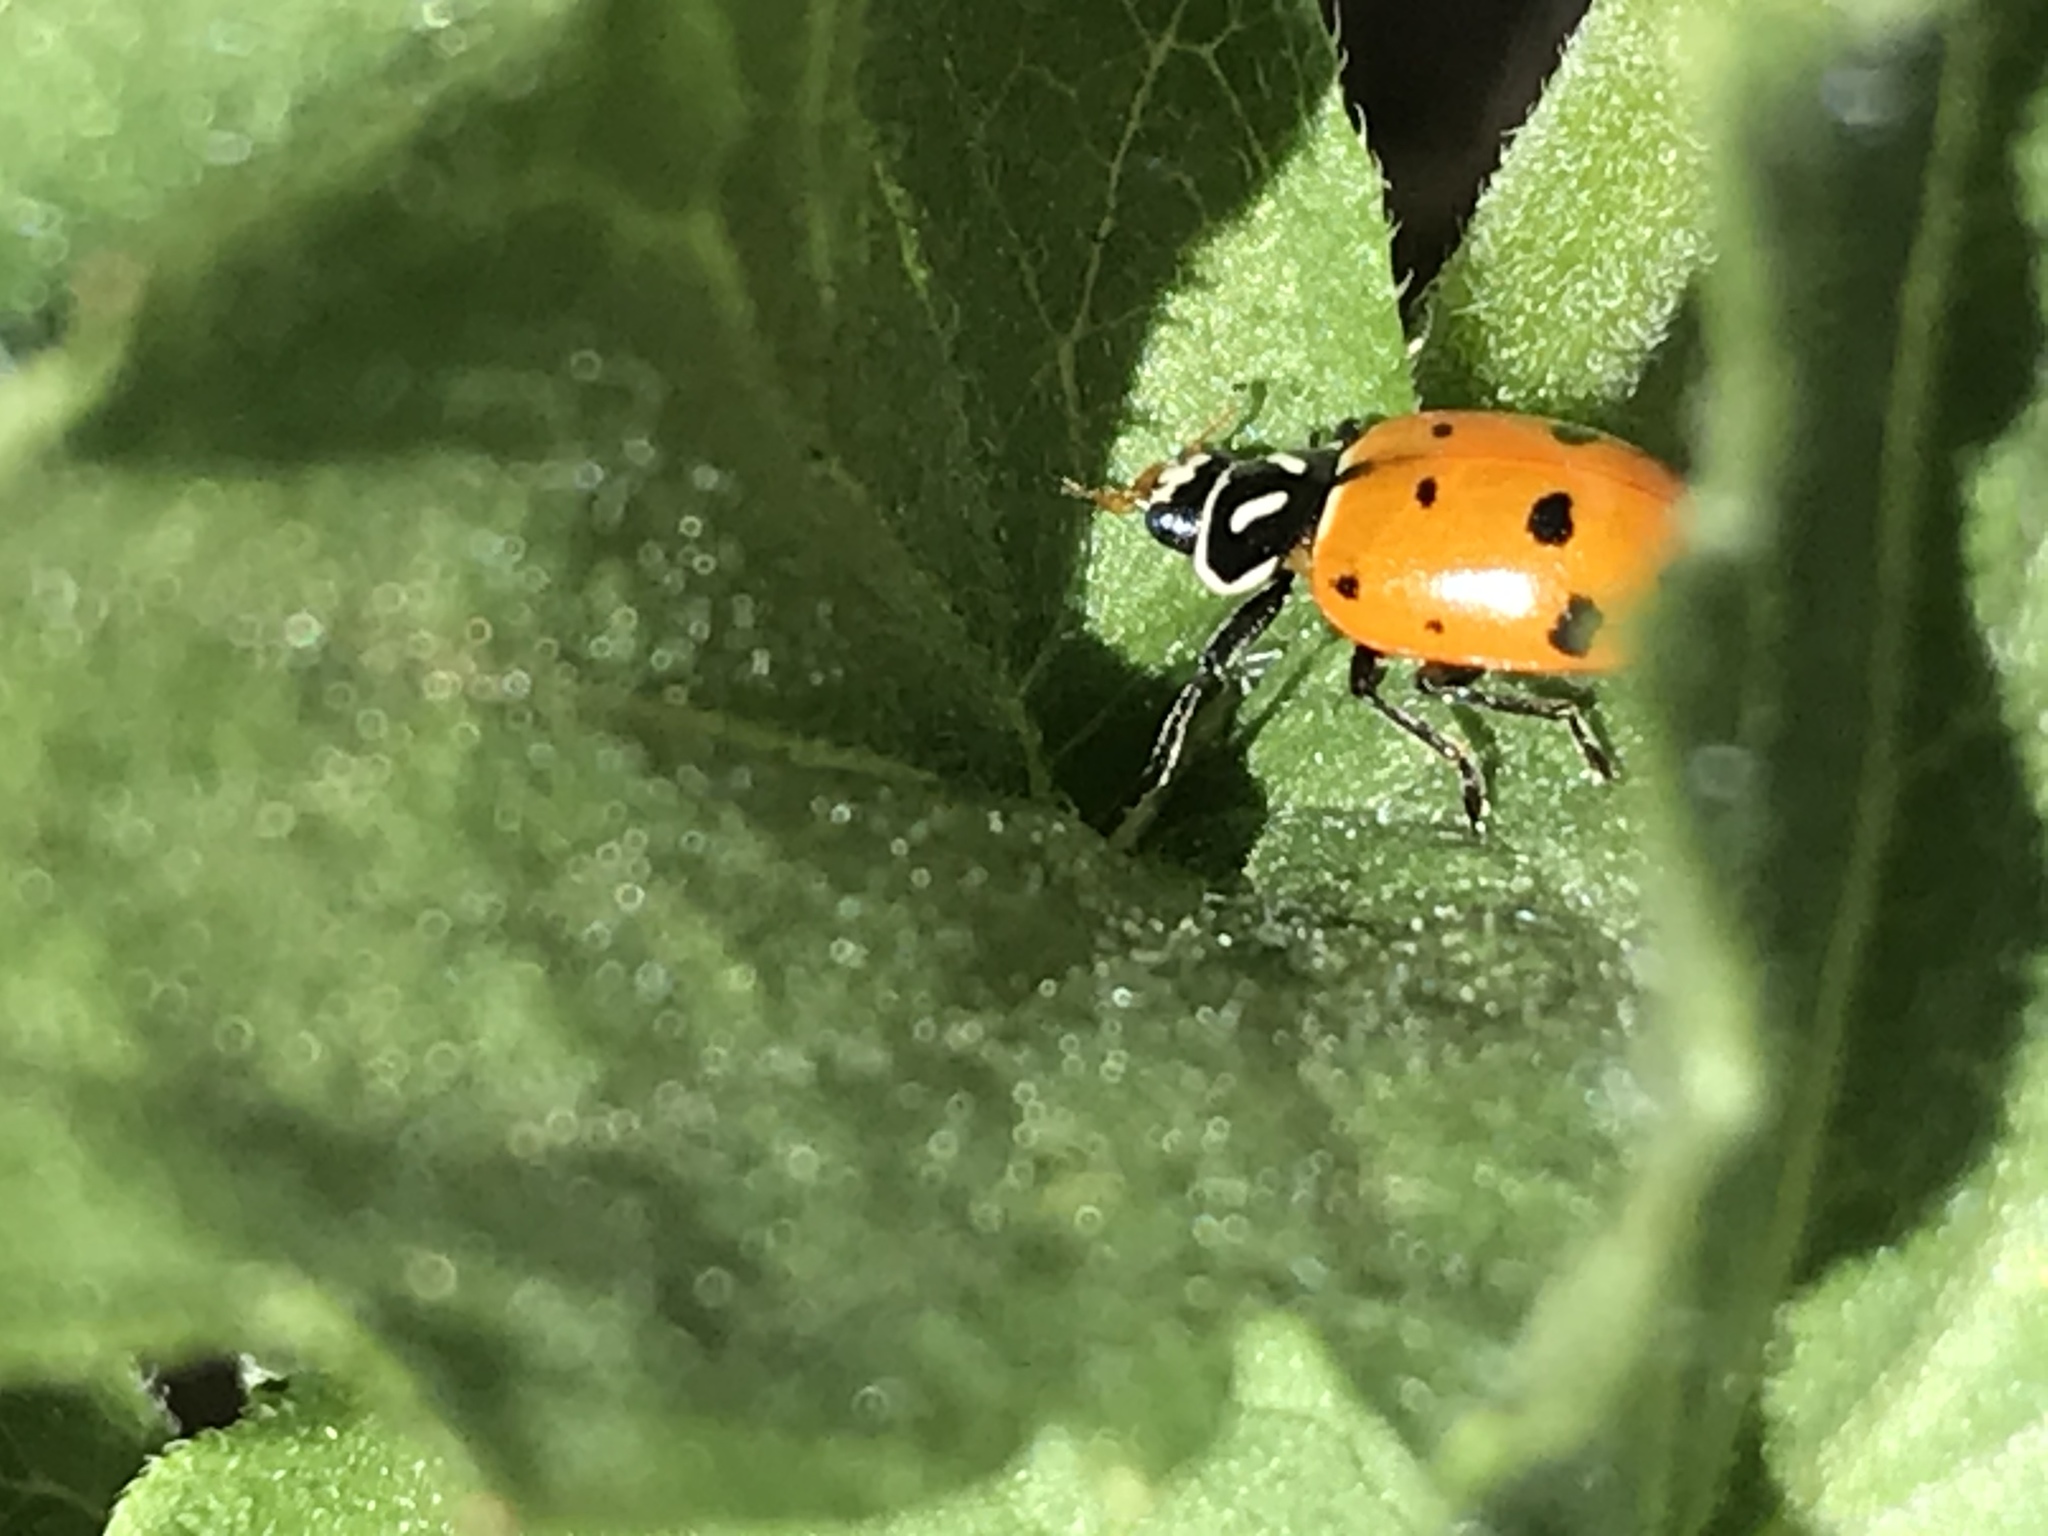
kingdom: Animalia
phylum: Arthropoda
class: Insecta
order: Coleoptera
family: Coccinellidae
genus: Hippodamia
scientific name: Hippodamia convergens
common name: Convergent lady beetle
